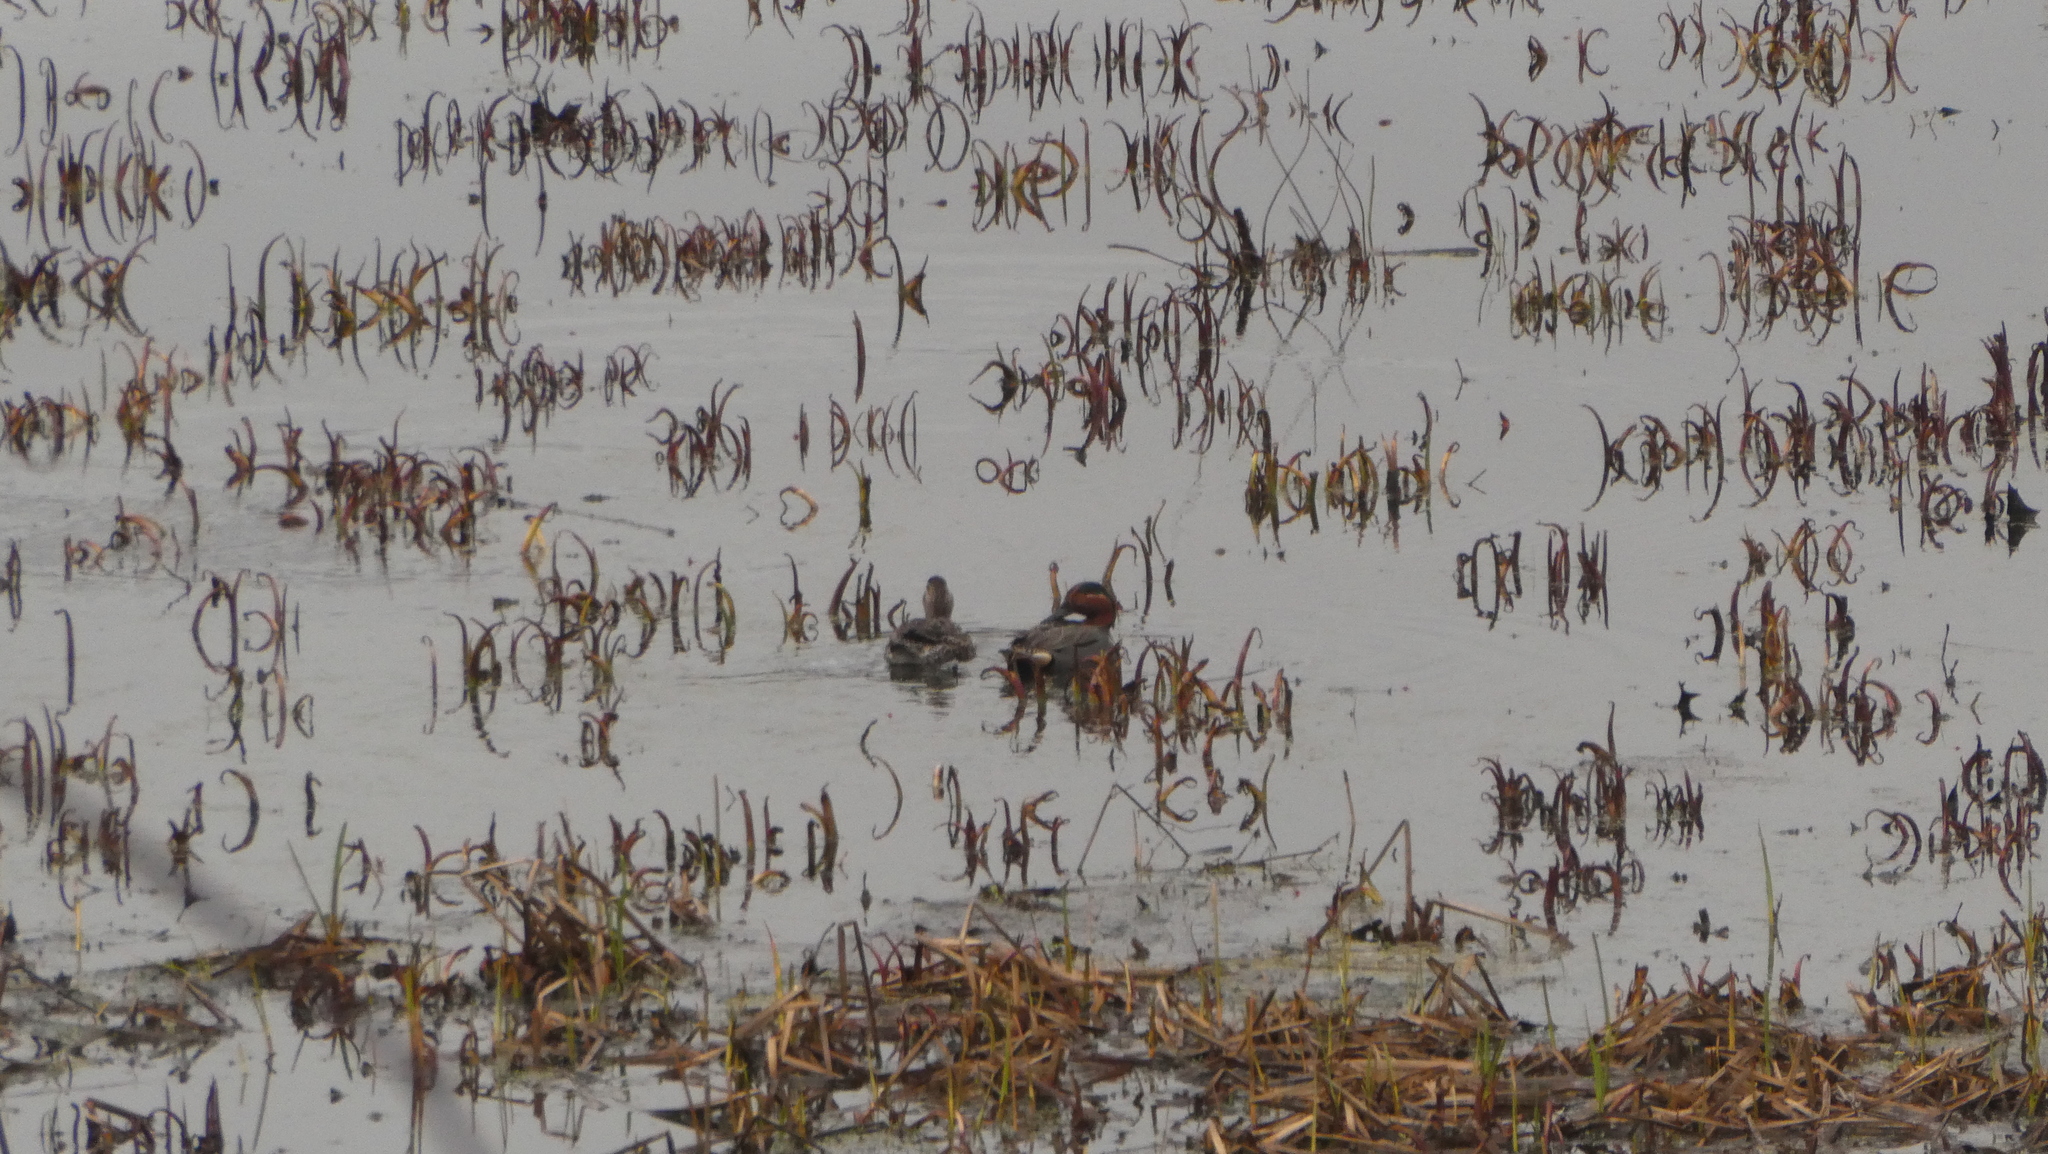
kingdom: Animalia
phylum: Chordata
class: Aves
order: Anseriformes
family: Anatidae
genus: Anas
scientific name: Anas crecca
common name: Eurasian teal
